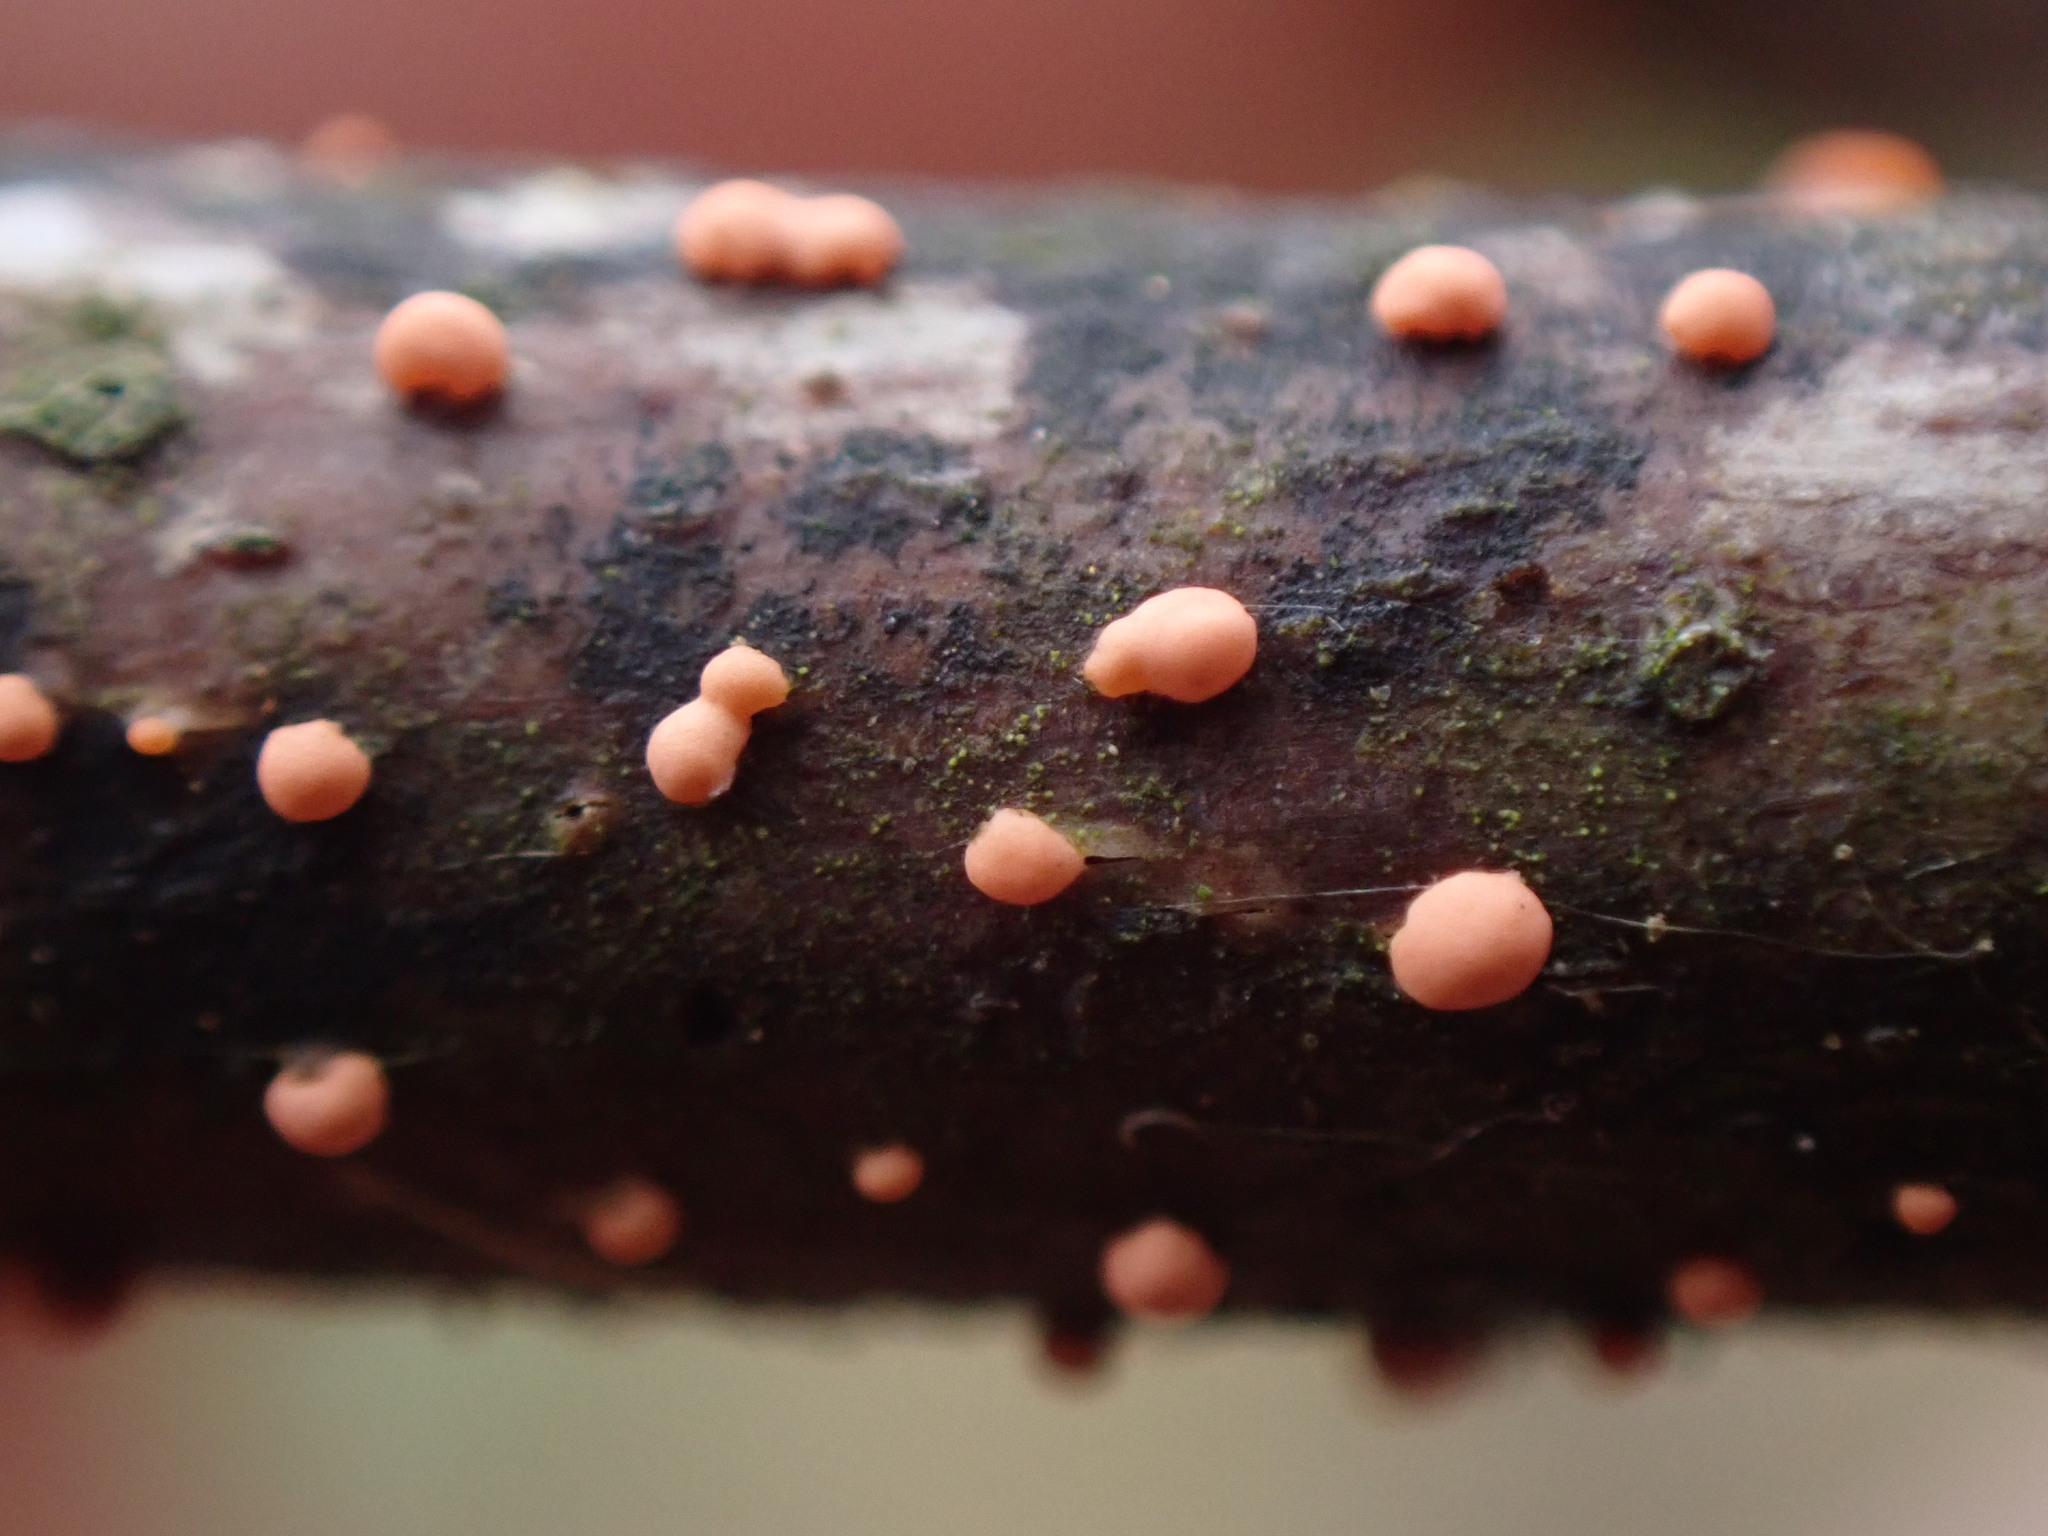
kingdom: Fungi
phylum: Ascomycota
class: Sordariomycetes
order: Hypocreales
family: Nectriaceae
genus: Nectria
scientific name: Nectria cinnabarina
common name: Coral spot
